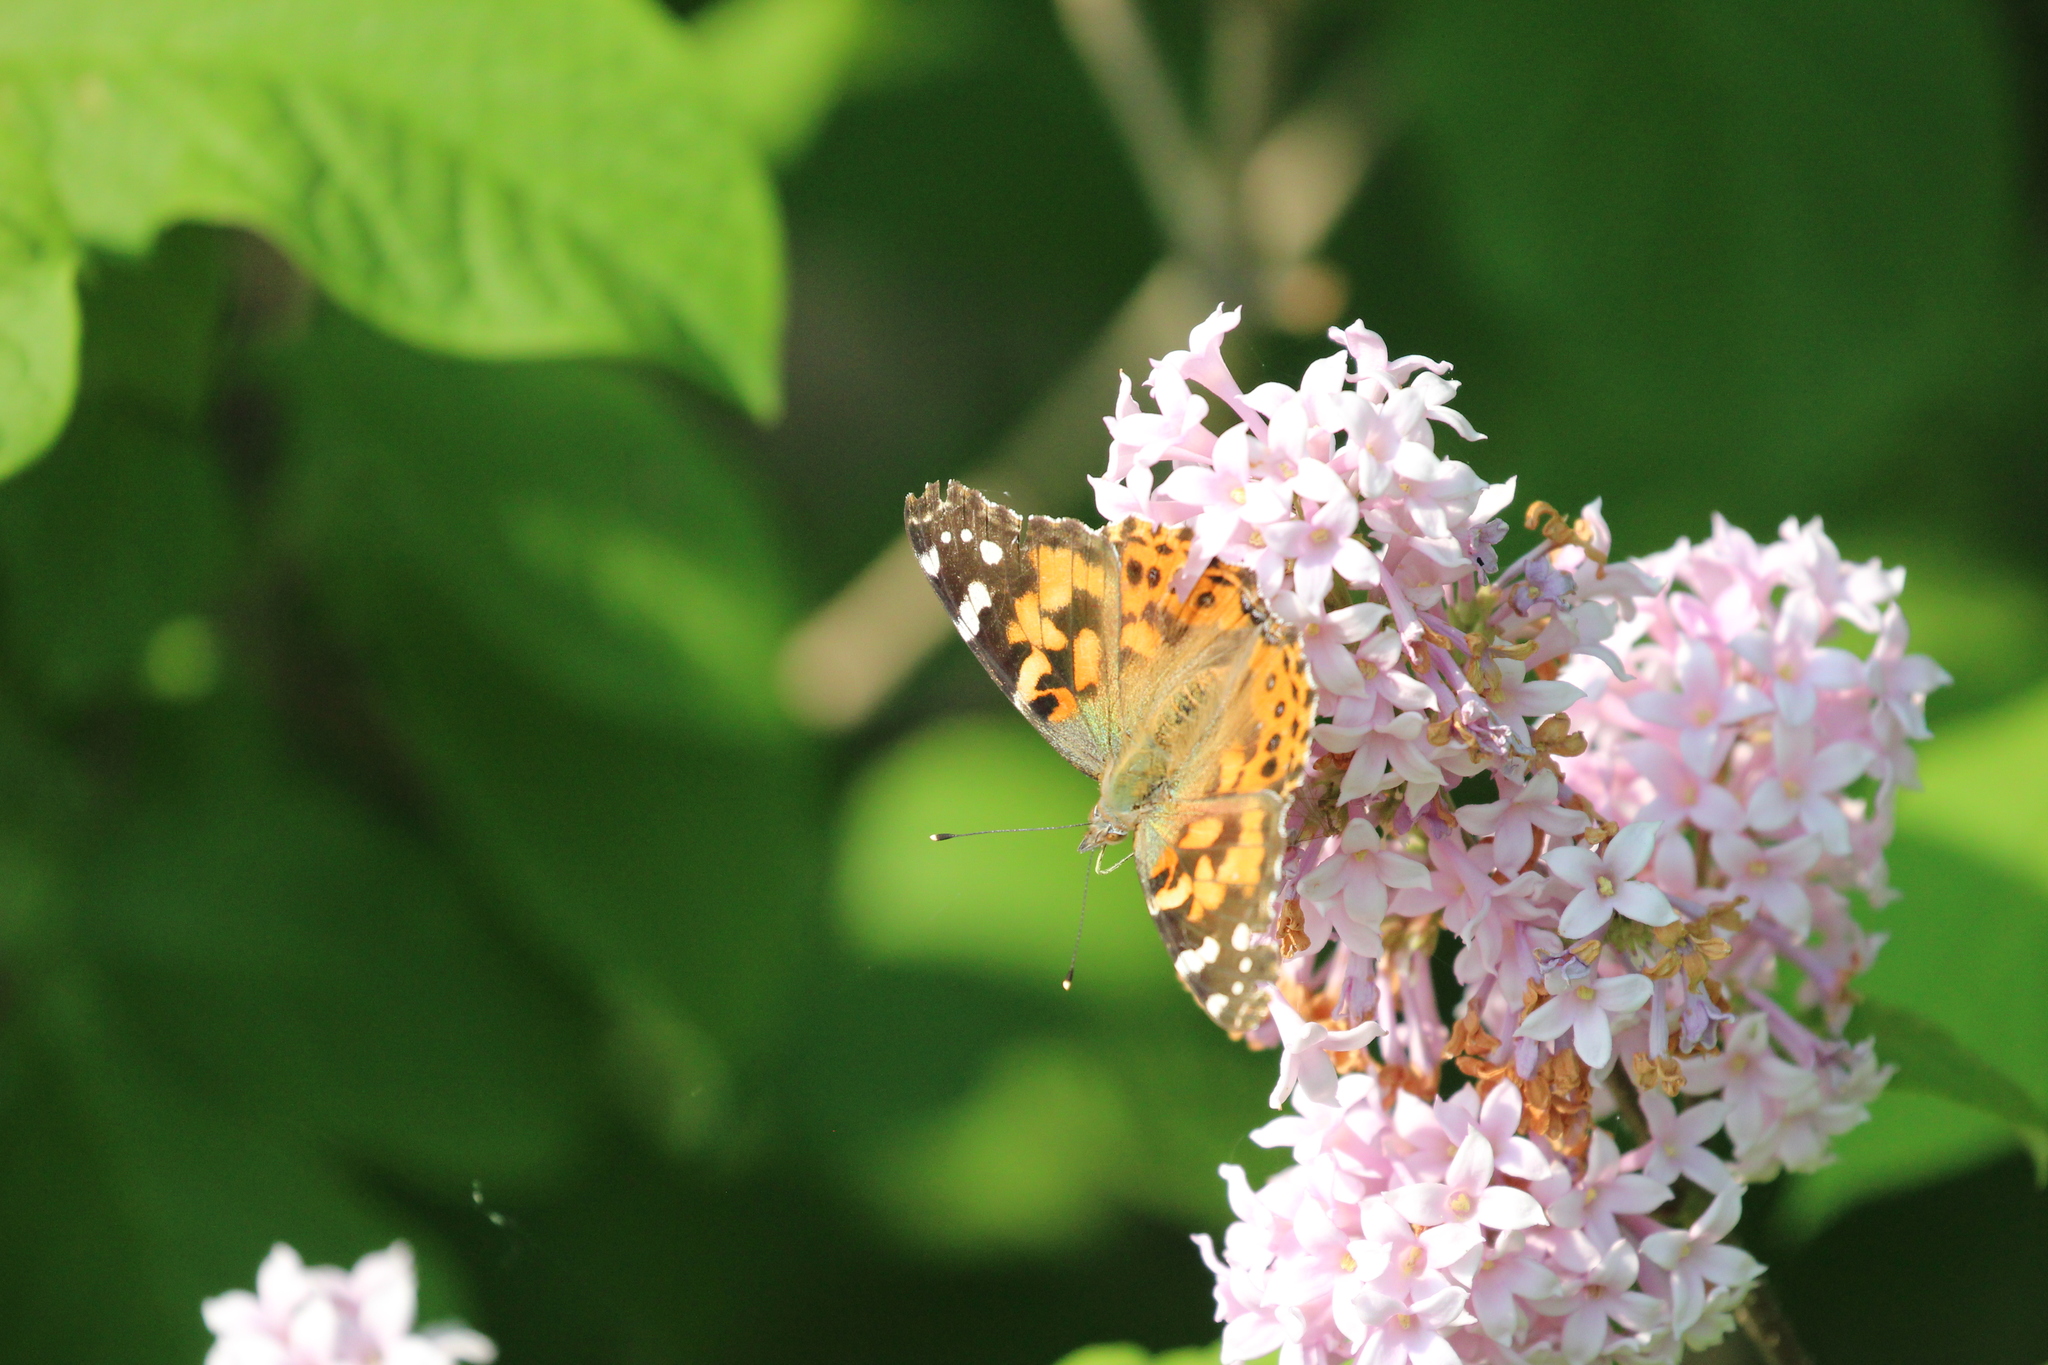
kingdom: Animalia
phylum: Arthropoda
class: Insecta
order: Lepidoptera
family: Nymphalidae
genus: Vanessa
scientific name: Vanessa cardui
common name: Painted lady
